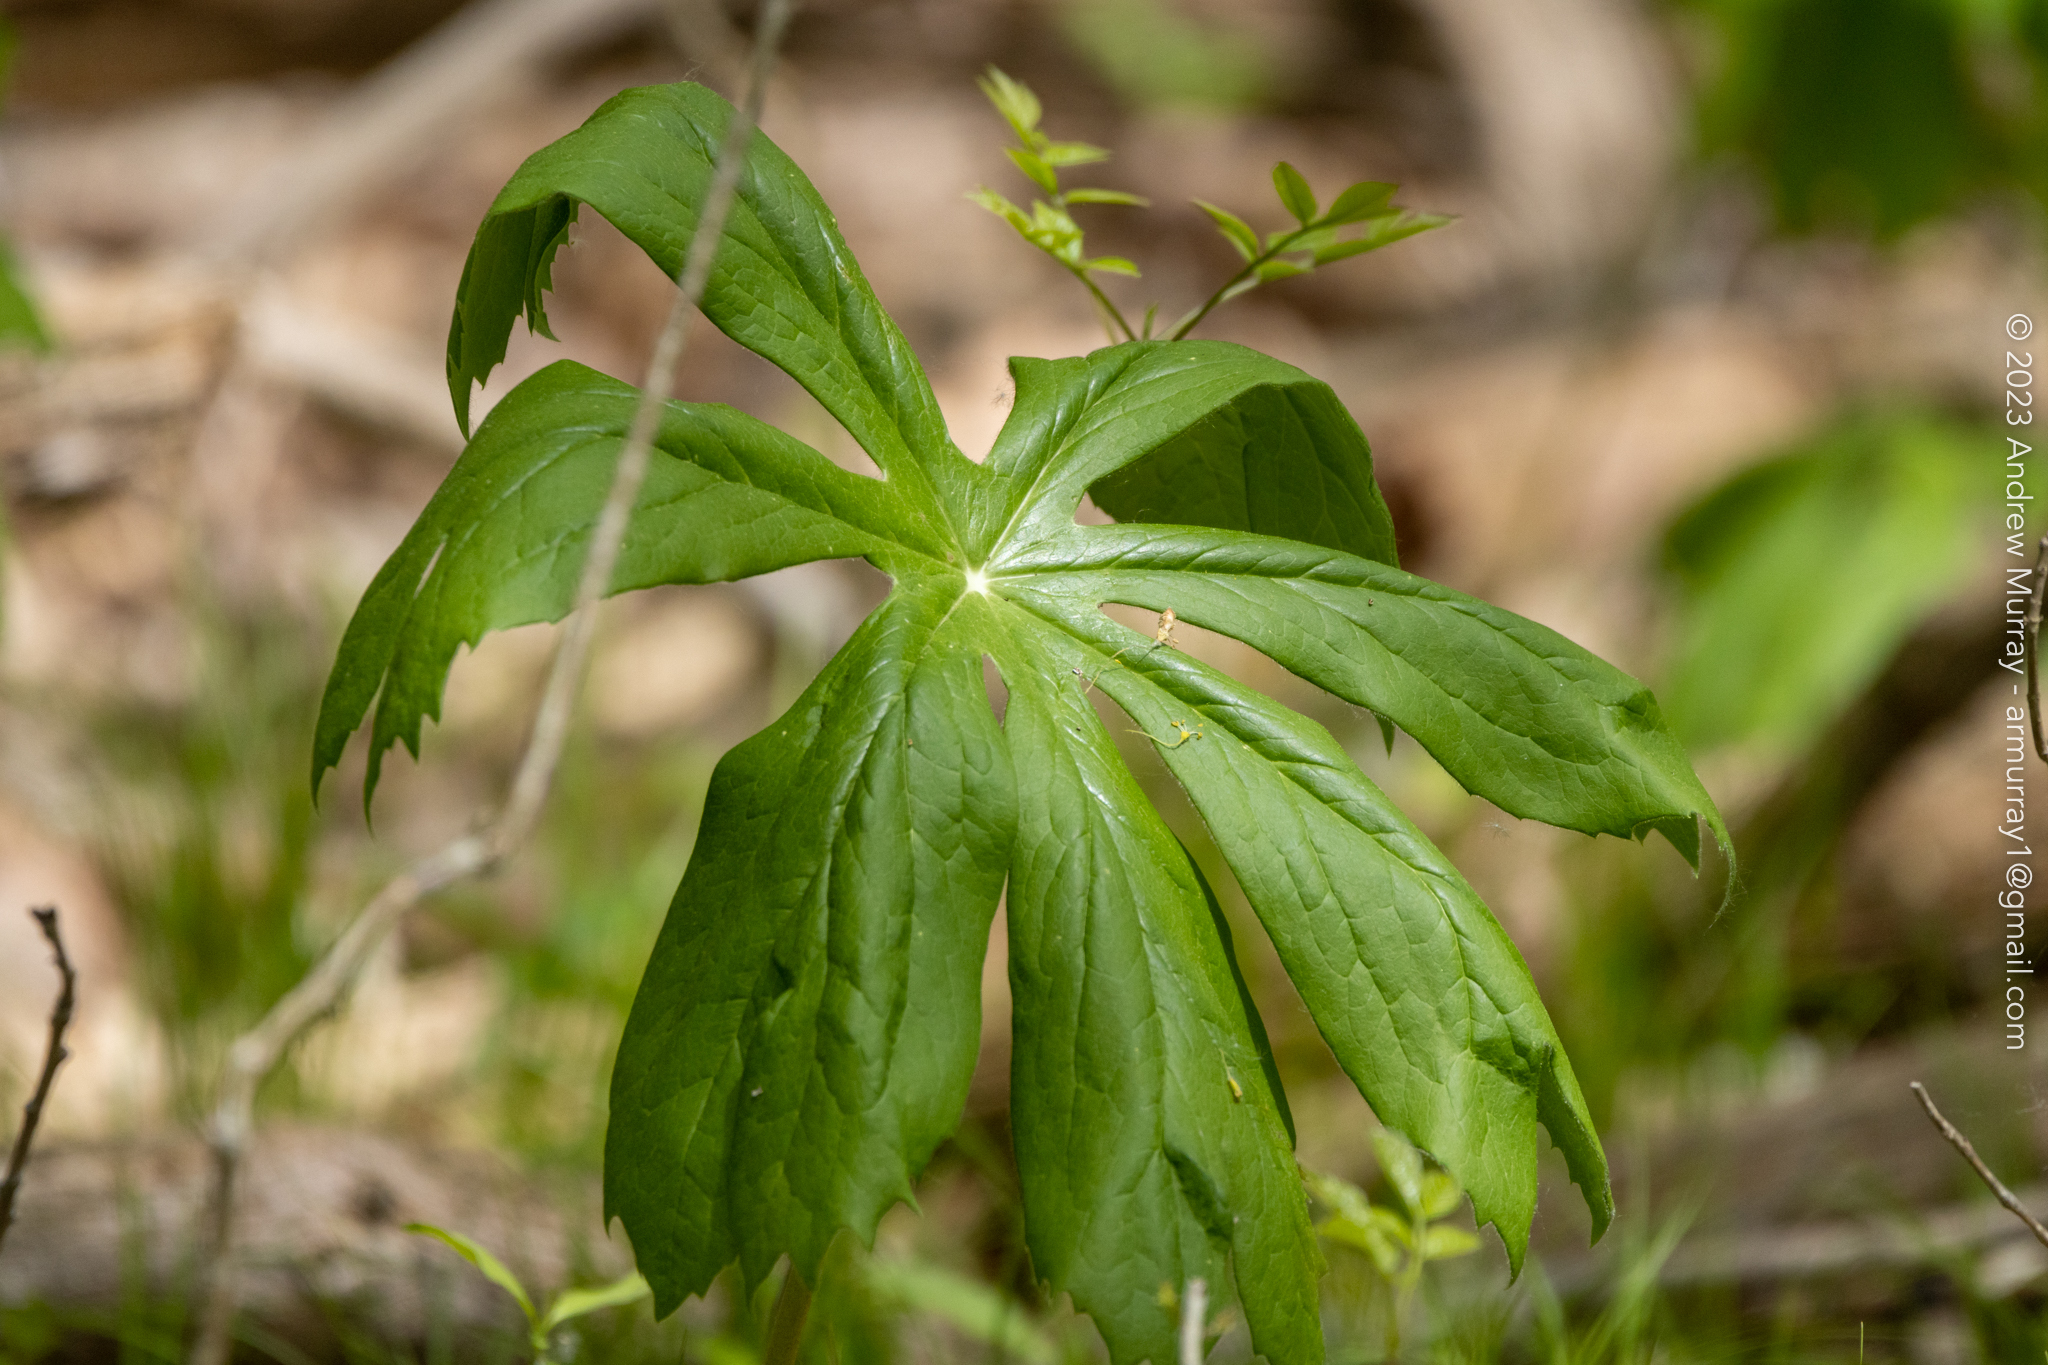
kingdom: Plantae
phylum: Tracheophyta
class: Magnoliopsida
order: Ranunculales
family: Berberidaceae
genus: Podophyllum
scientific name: Podophyllum peltatum
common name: Wild mandrake
